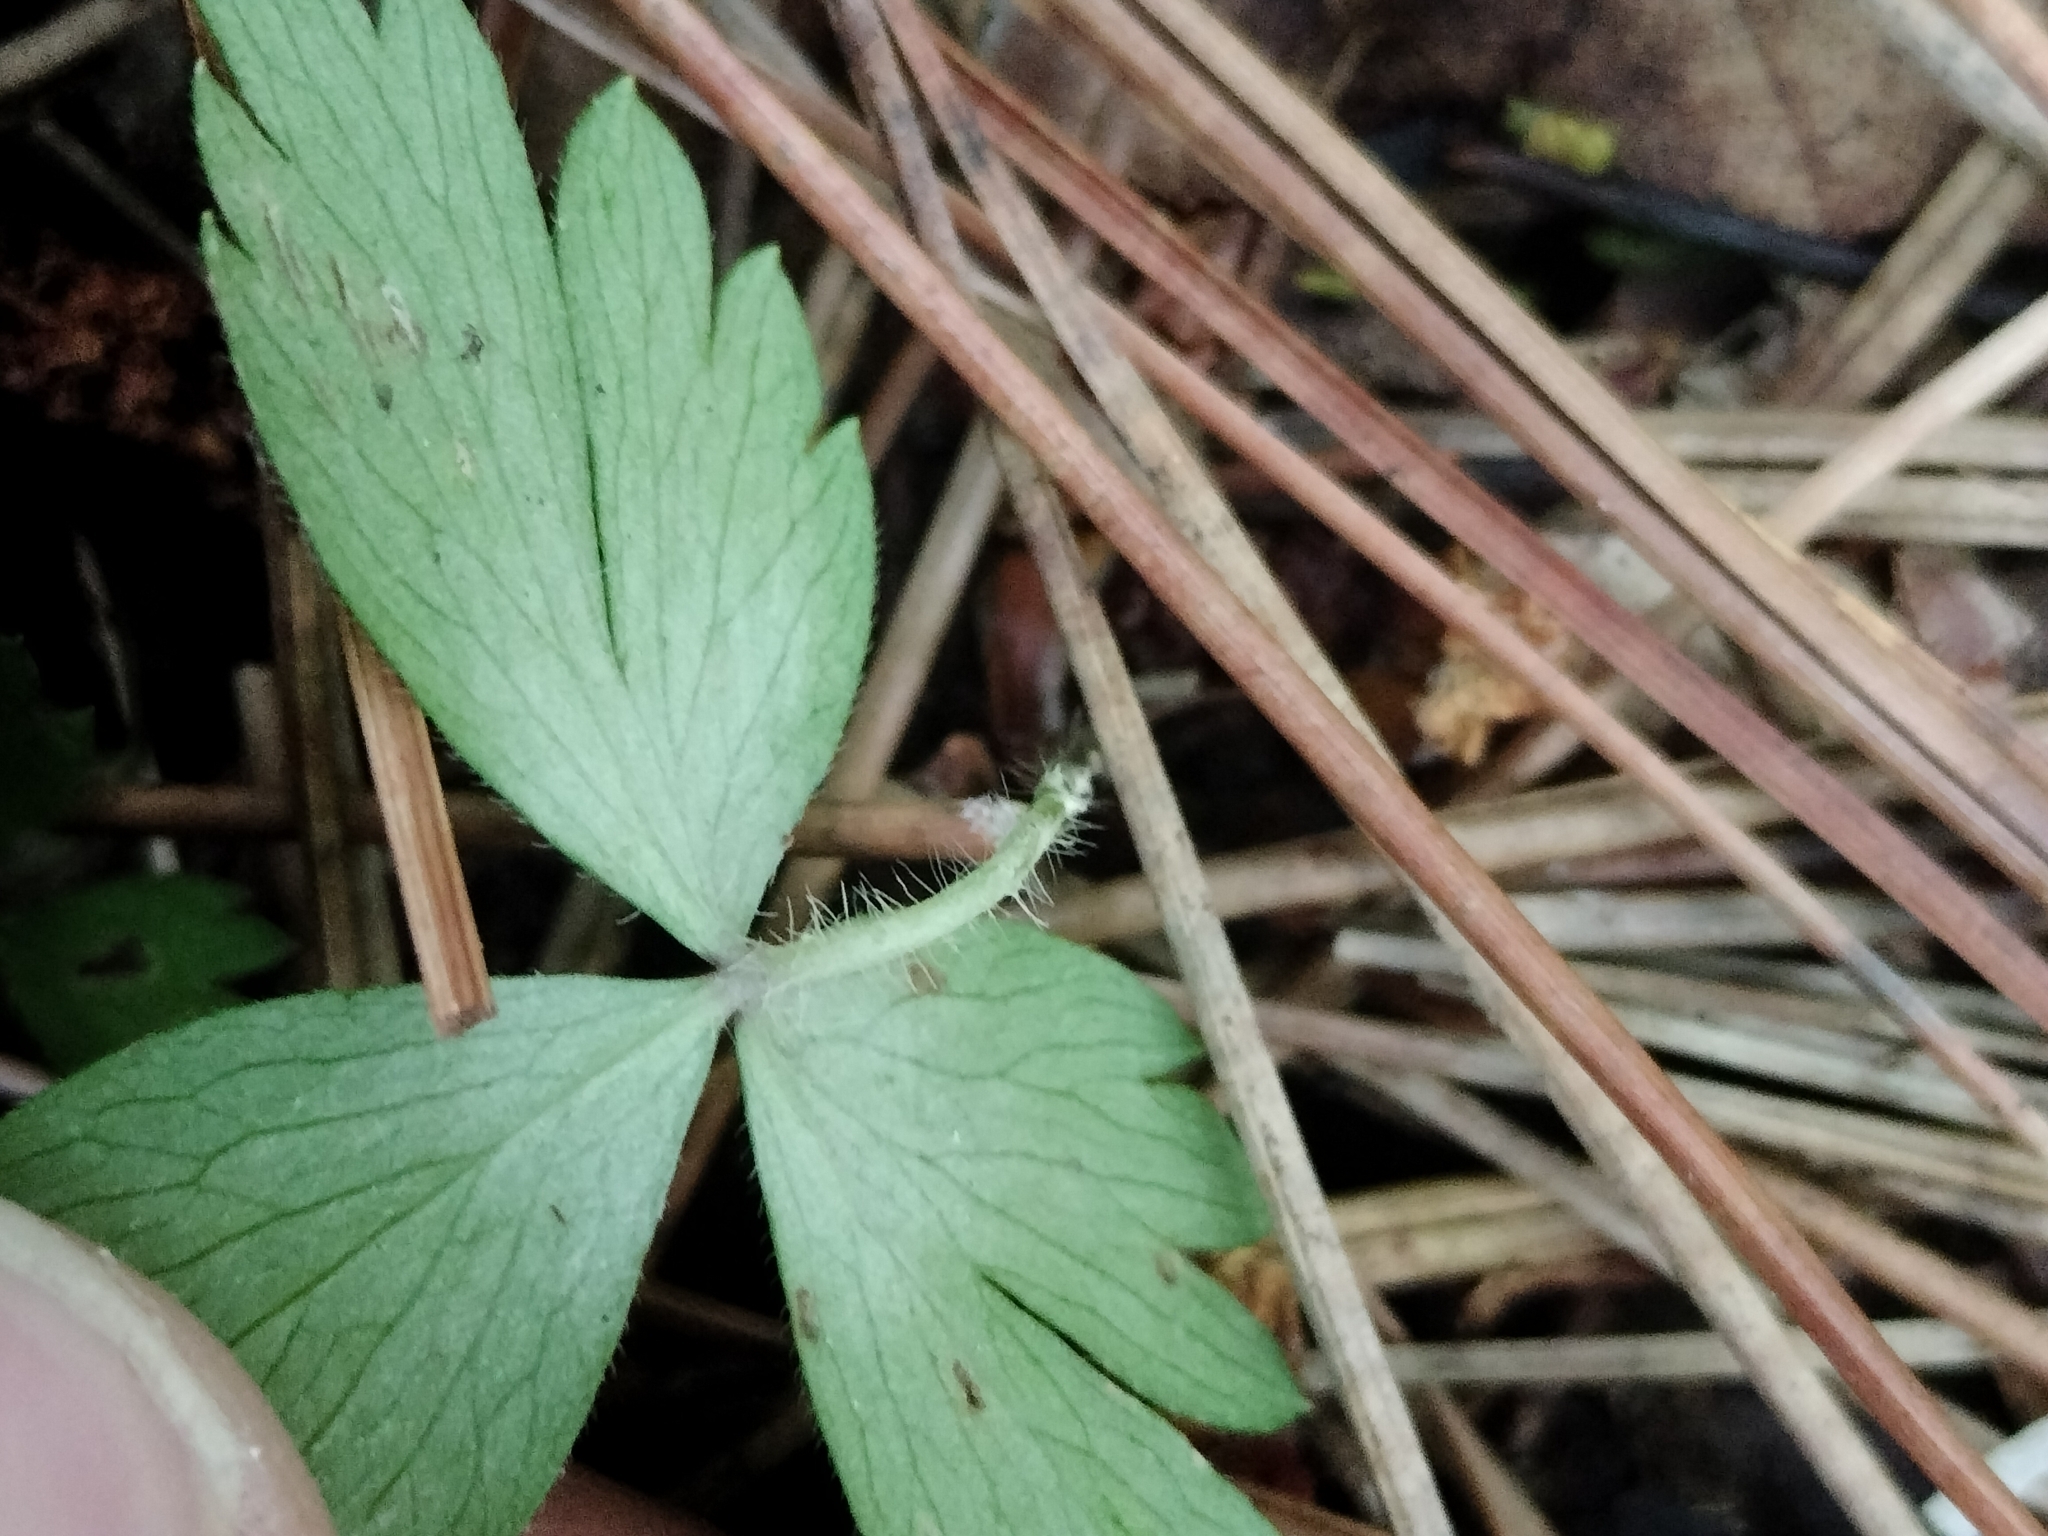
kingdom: Plantae
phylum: Tracheophyta
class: Magnoliopsida
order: Ranunculales
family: Ranunculaceae
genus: Anemone
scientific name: Anemone quinquefolia
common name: Wood anemone
